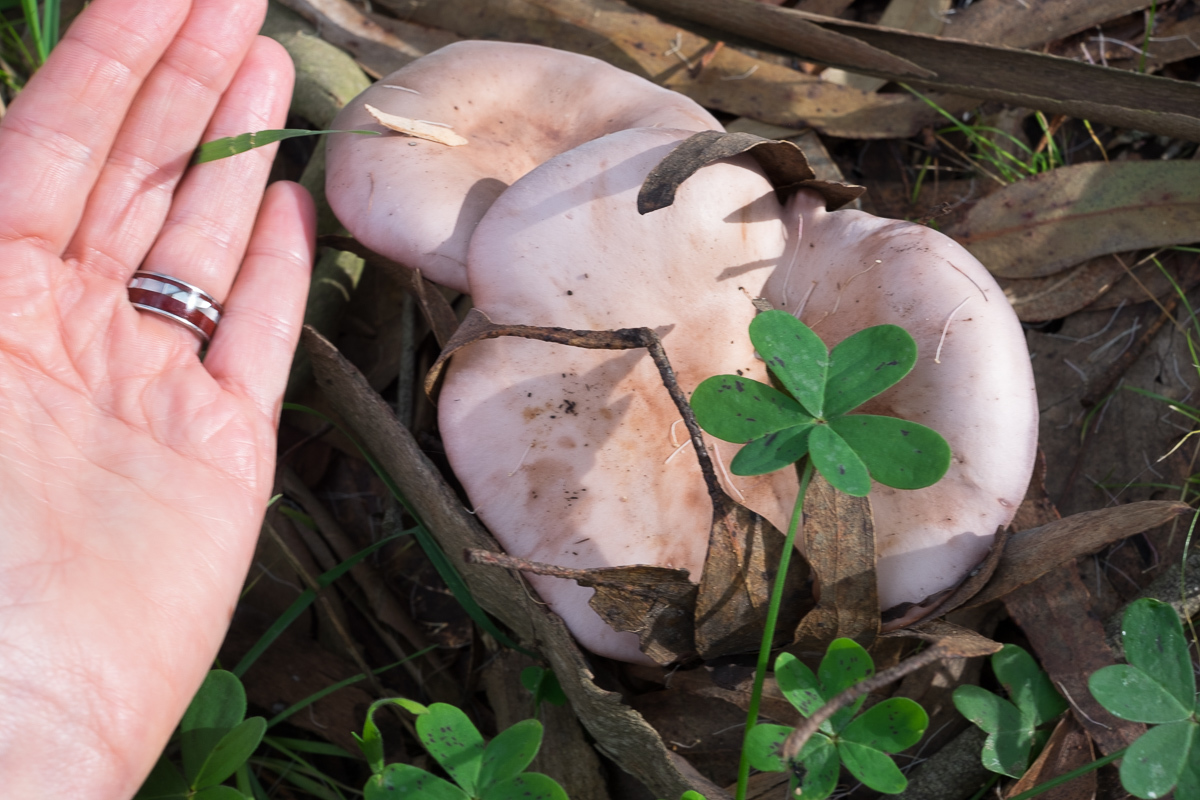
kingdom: Fungi
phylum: Basidiomycota
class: Agaricomycetes
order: Agaricales
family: Tricholomataceae
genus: Collybia
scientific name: Collybia
